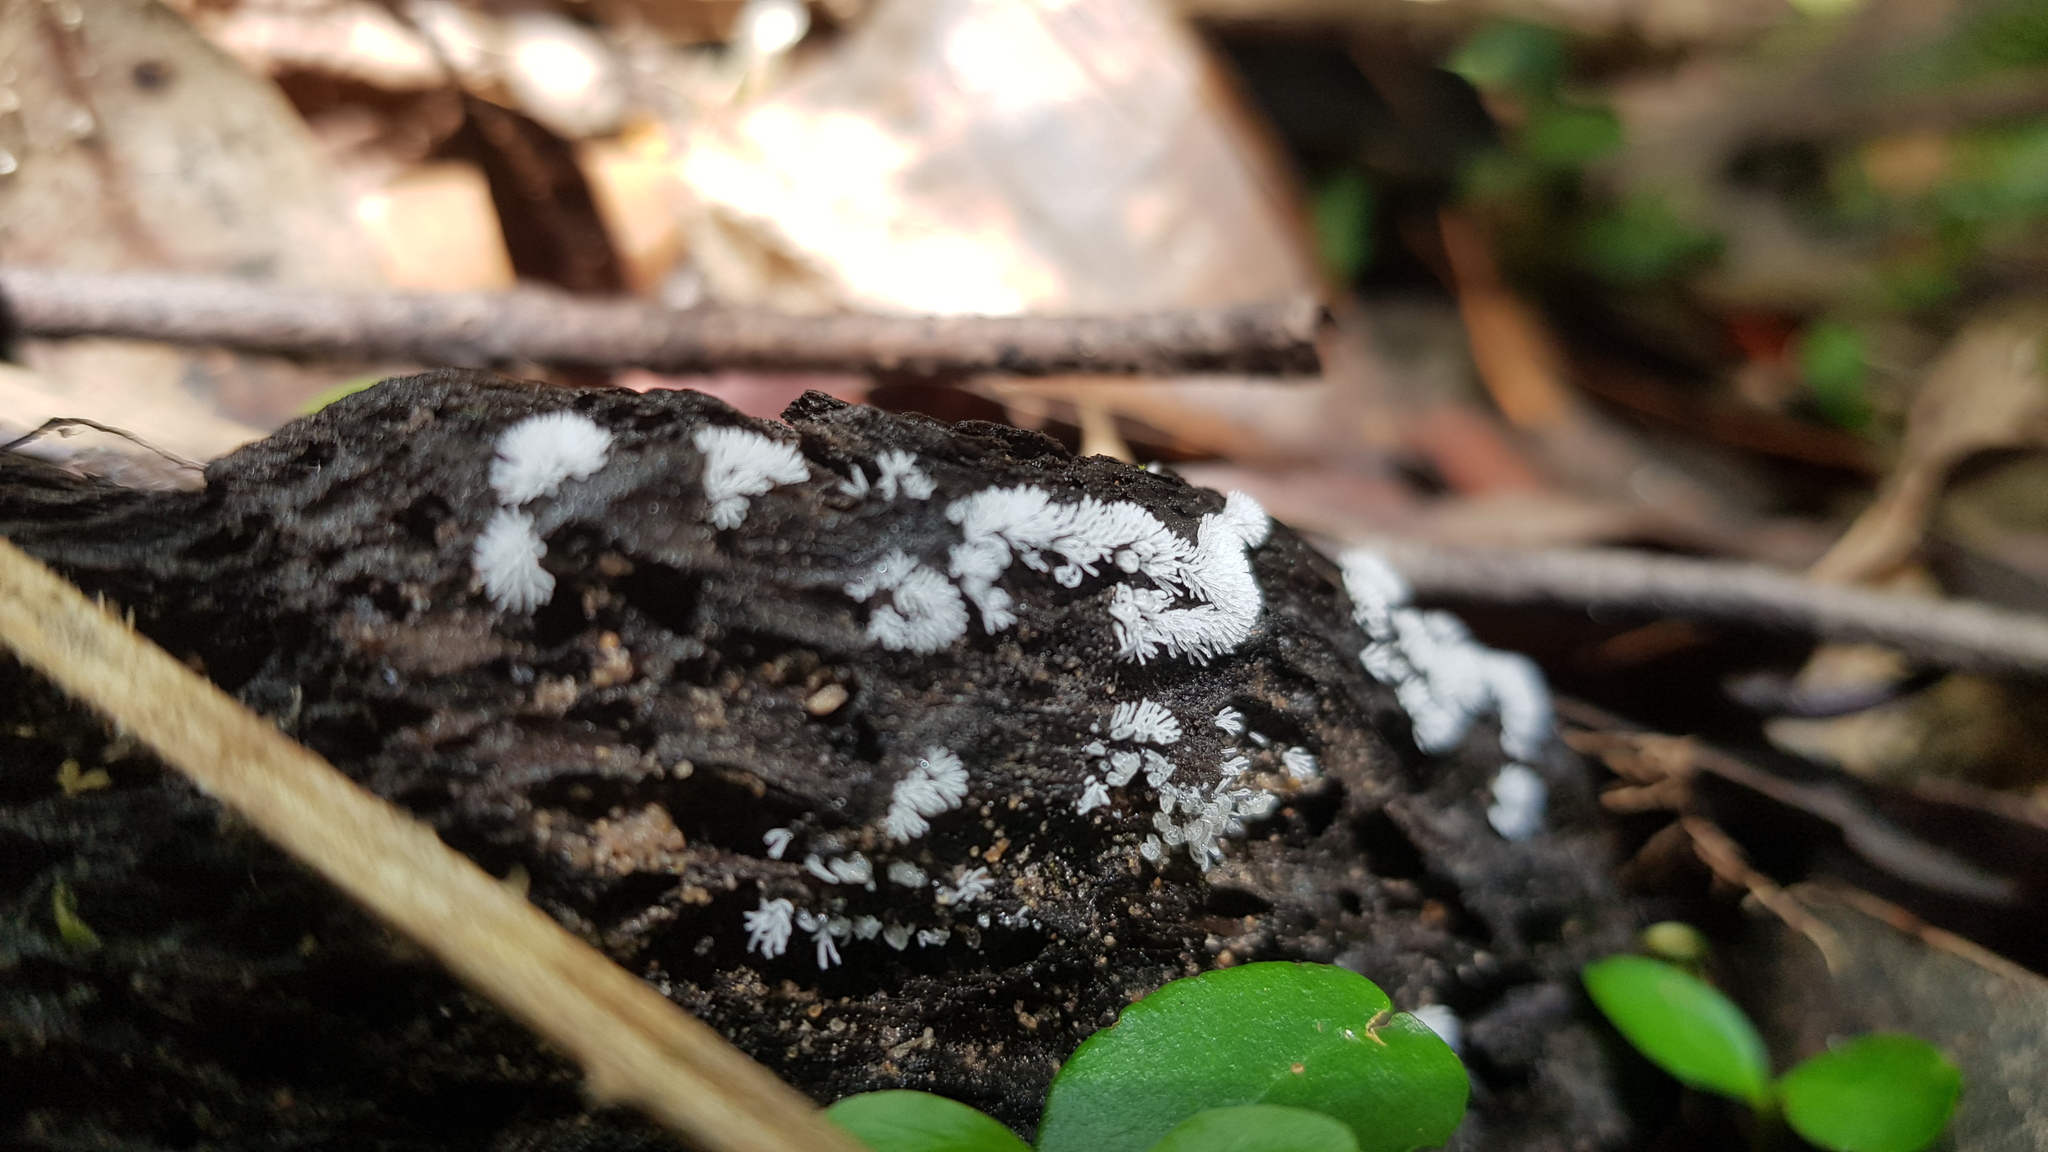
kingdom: Protozoa
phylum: Mycetozoa
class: Protosteliomycetes
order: Ceratiomyxales
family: Ceratiomyxaceae
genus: Ceratiomyxa
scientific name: Ceratiomyxa fruticulosa
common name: Honeycomb coral slime mold
